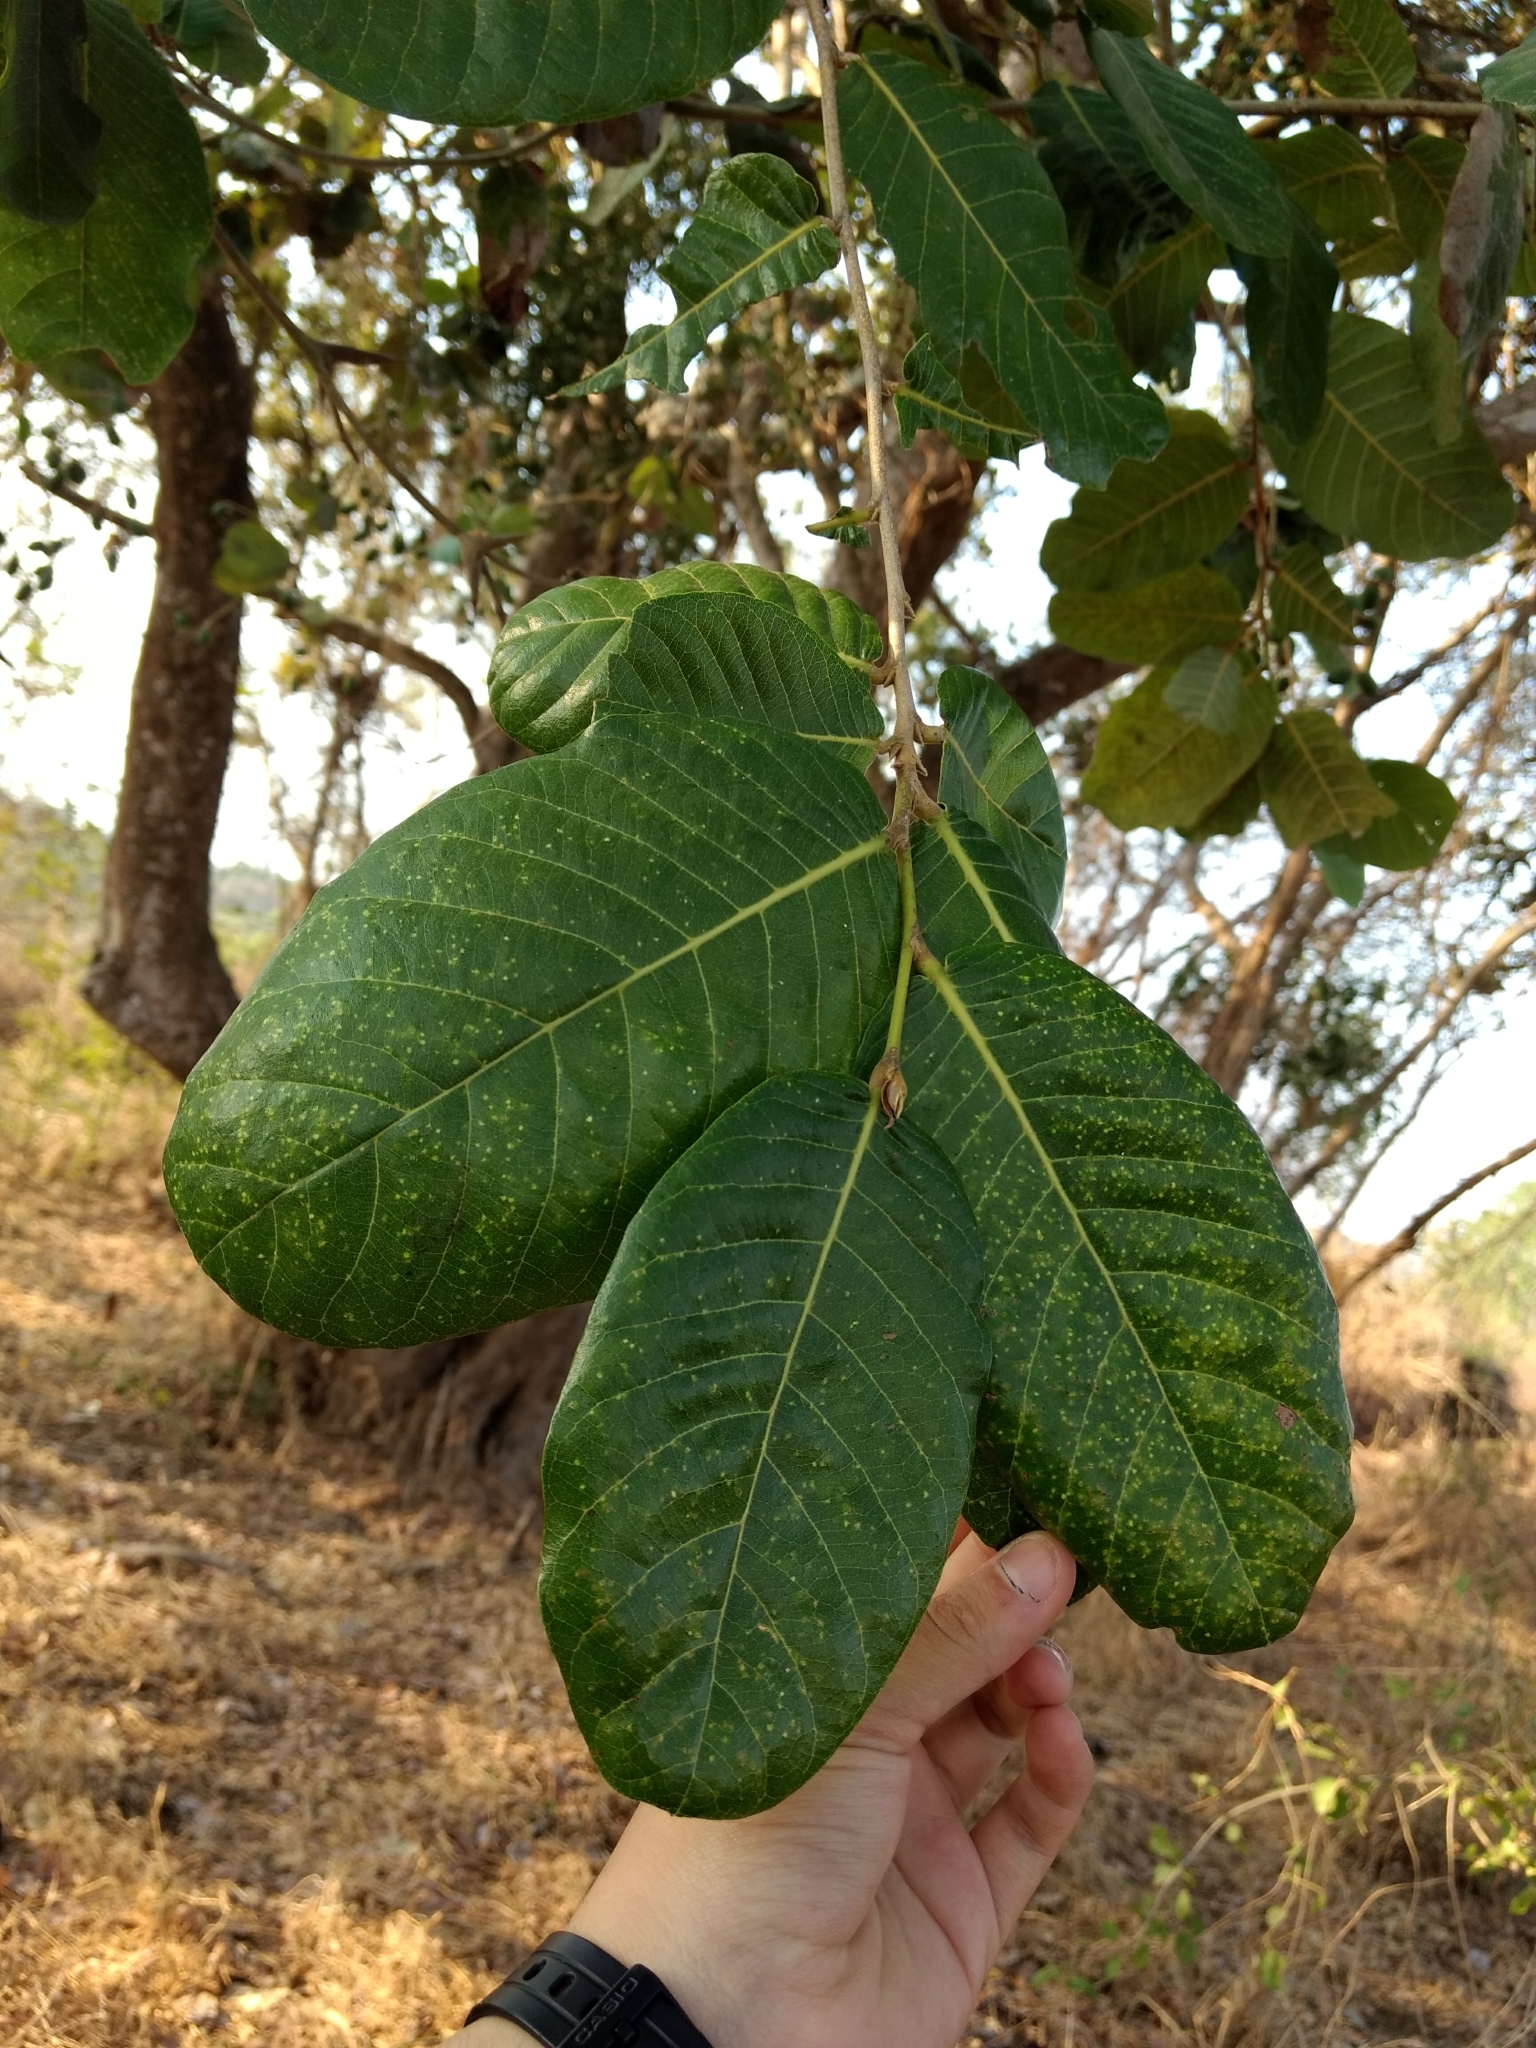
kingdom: Plantae
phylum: Tracheophyta
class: Magnoliopsida
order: Malpighiales
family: Chrysobalanaceae
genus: Microdesmia
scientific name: Microdesmia arborea
